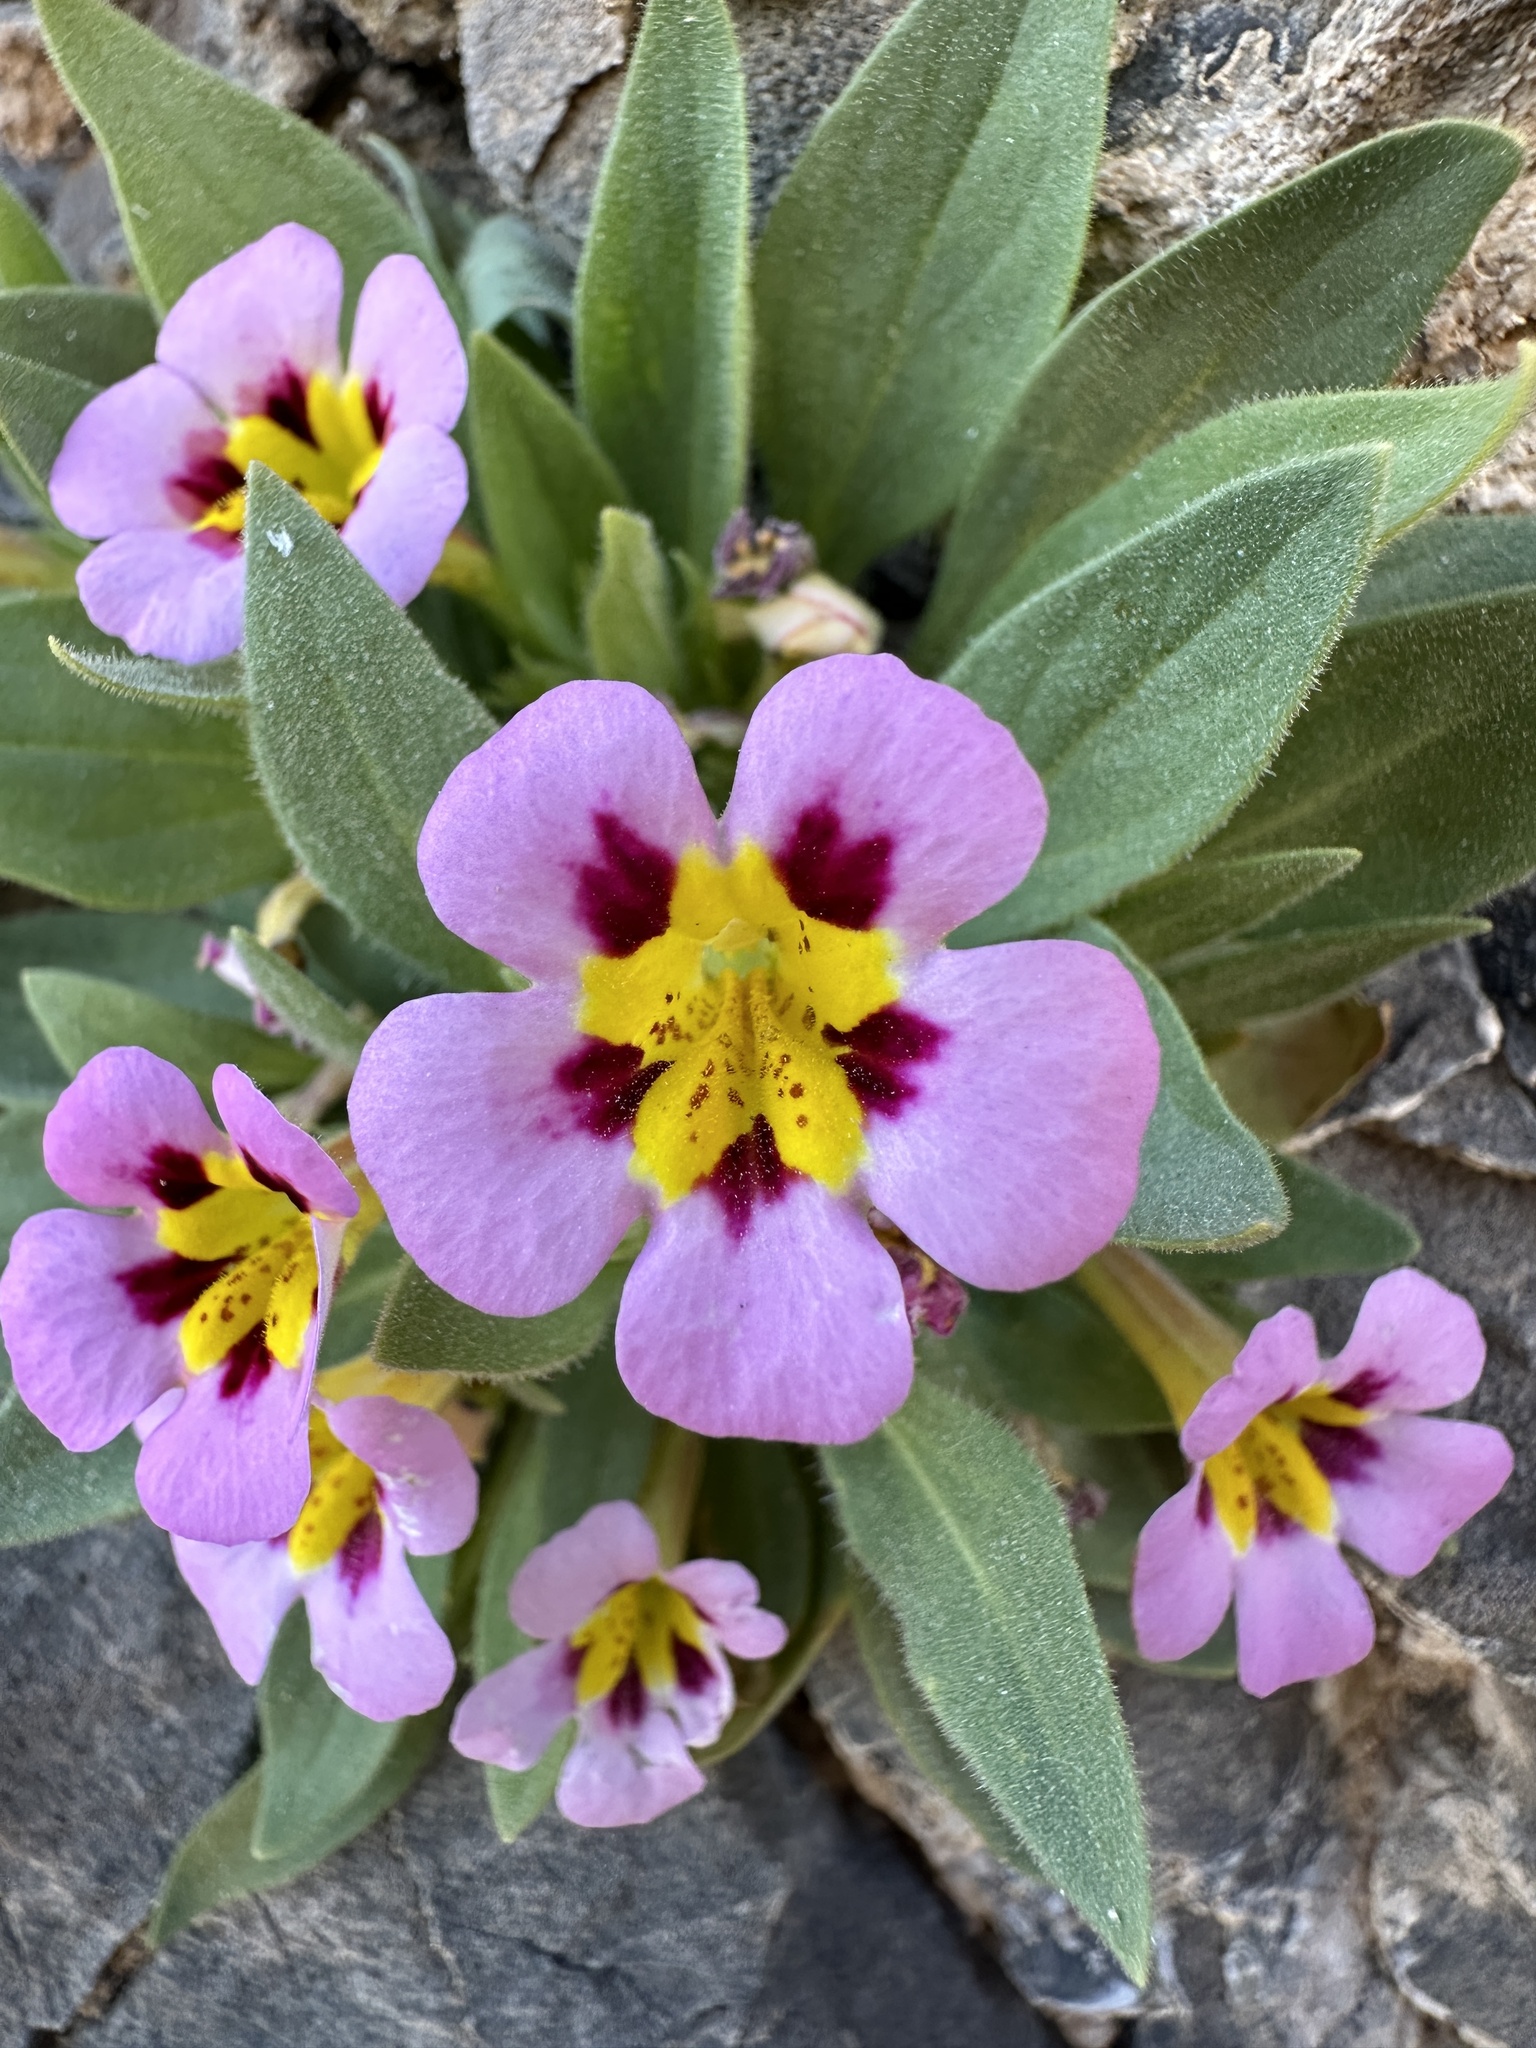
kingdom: Plantae
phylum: Tracheophyta
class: Magnoliopsida
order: Lamiales
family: Phrymaceae
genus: Diplacus
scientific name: Diplacus rupicola
